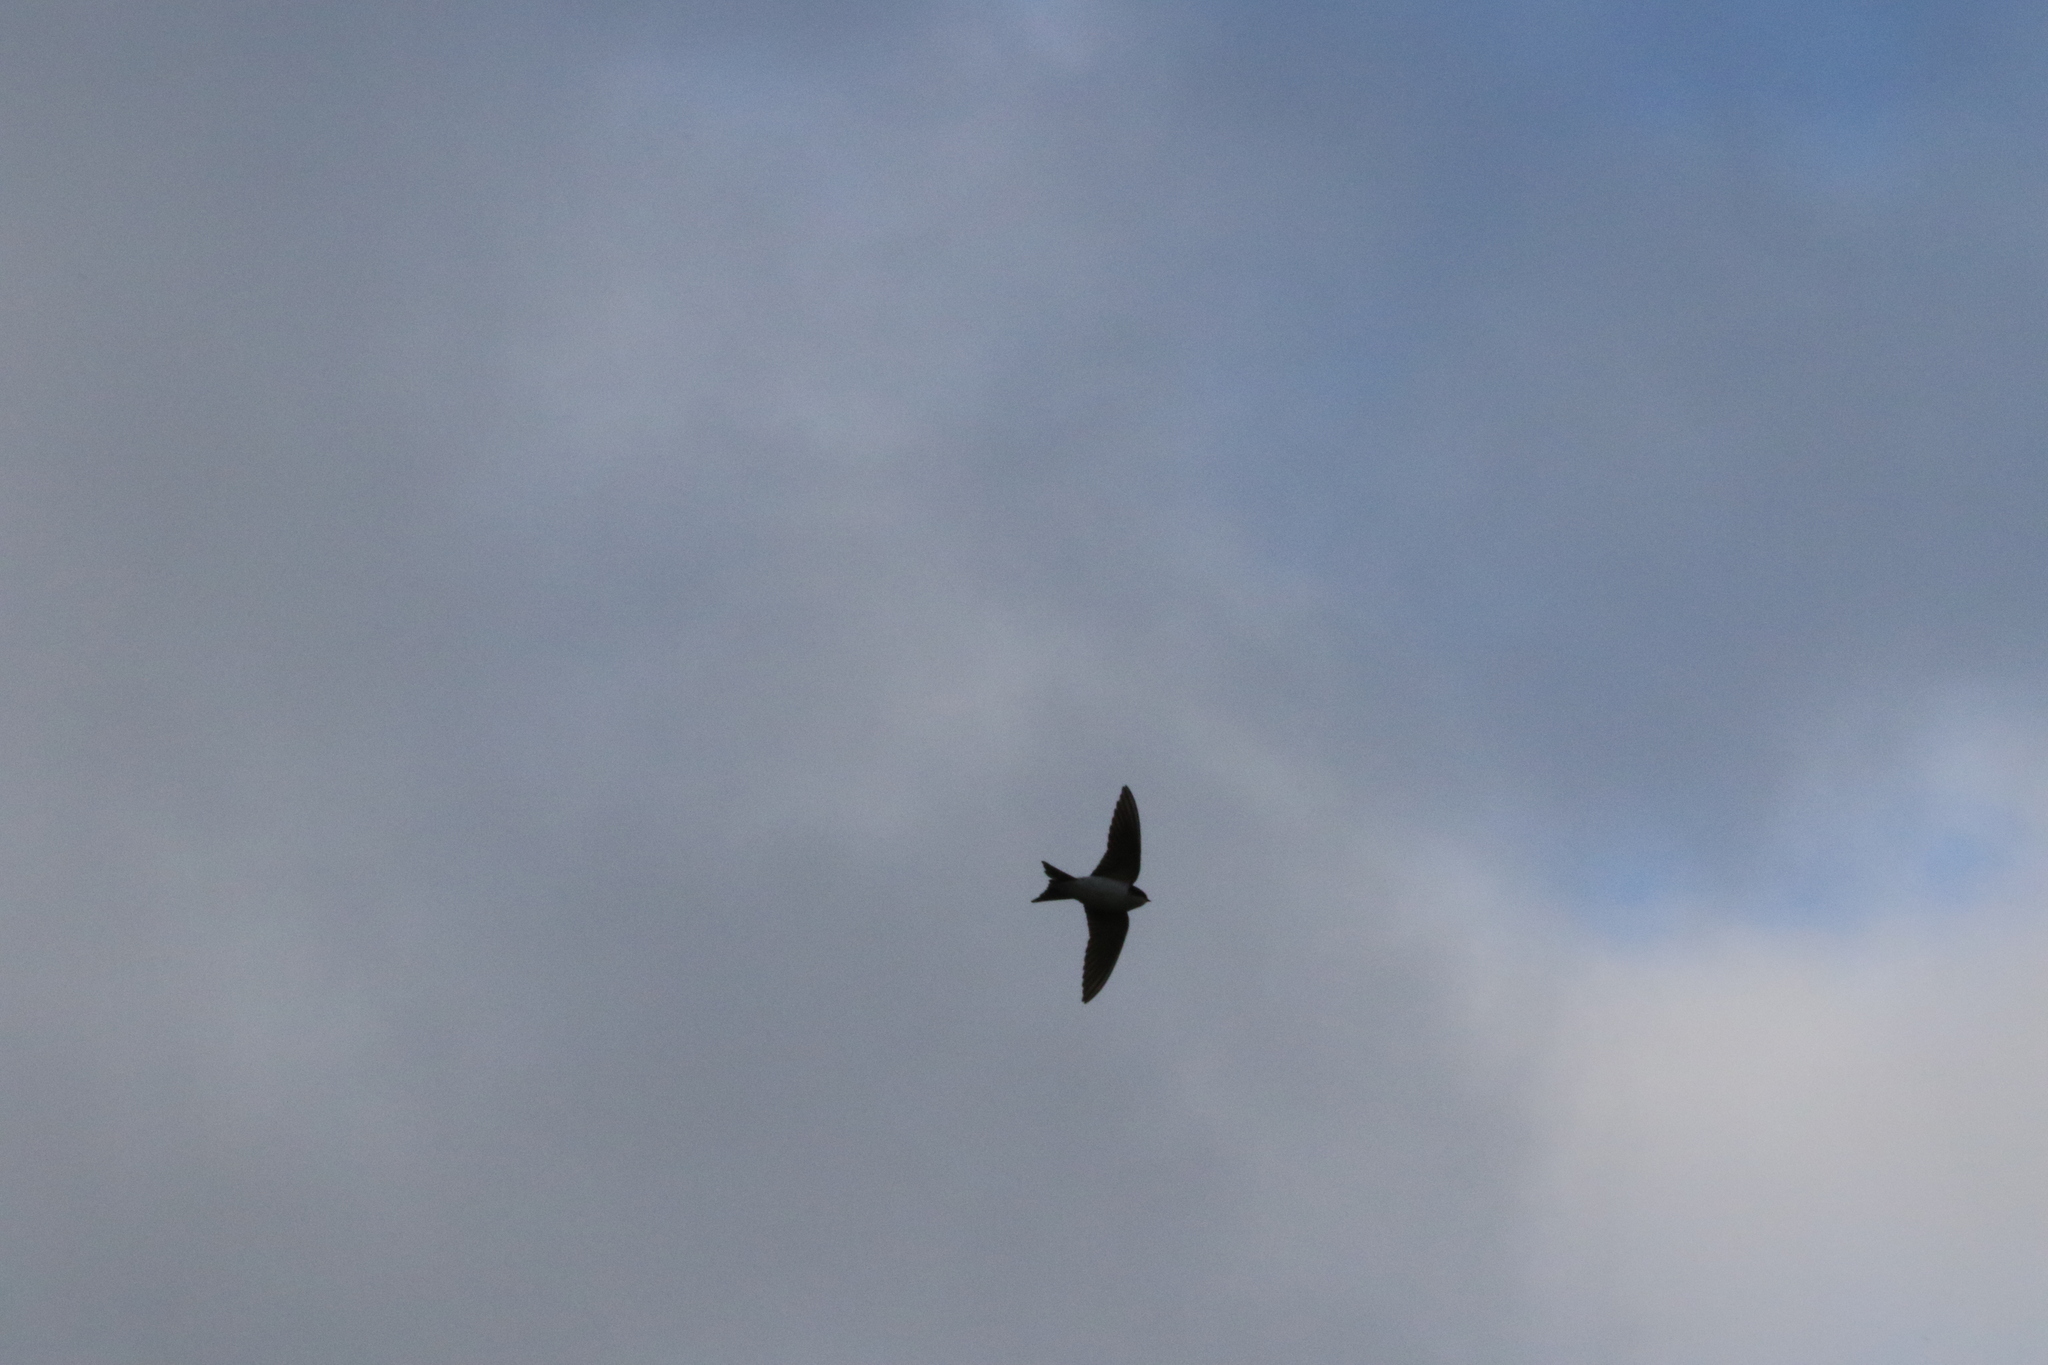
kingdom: Animalia
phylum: Chordata
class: Aves
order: Passeriformes
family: Hirundinidae
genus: Delichon
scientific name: Delichon urbicum
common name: Common house martin
